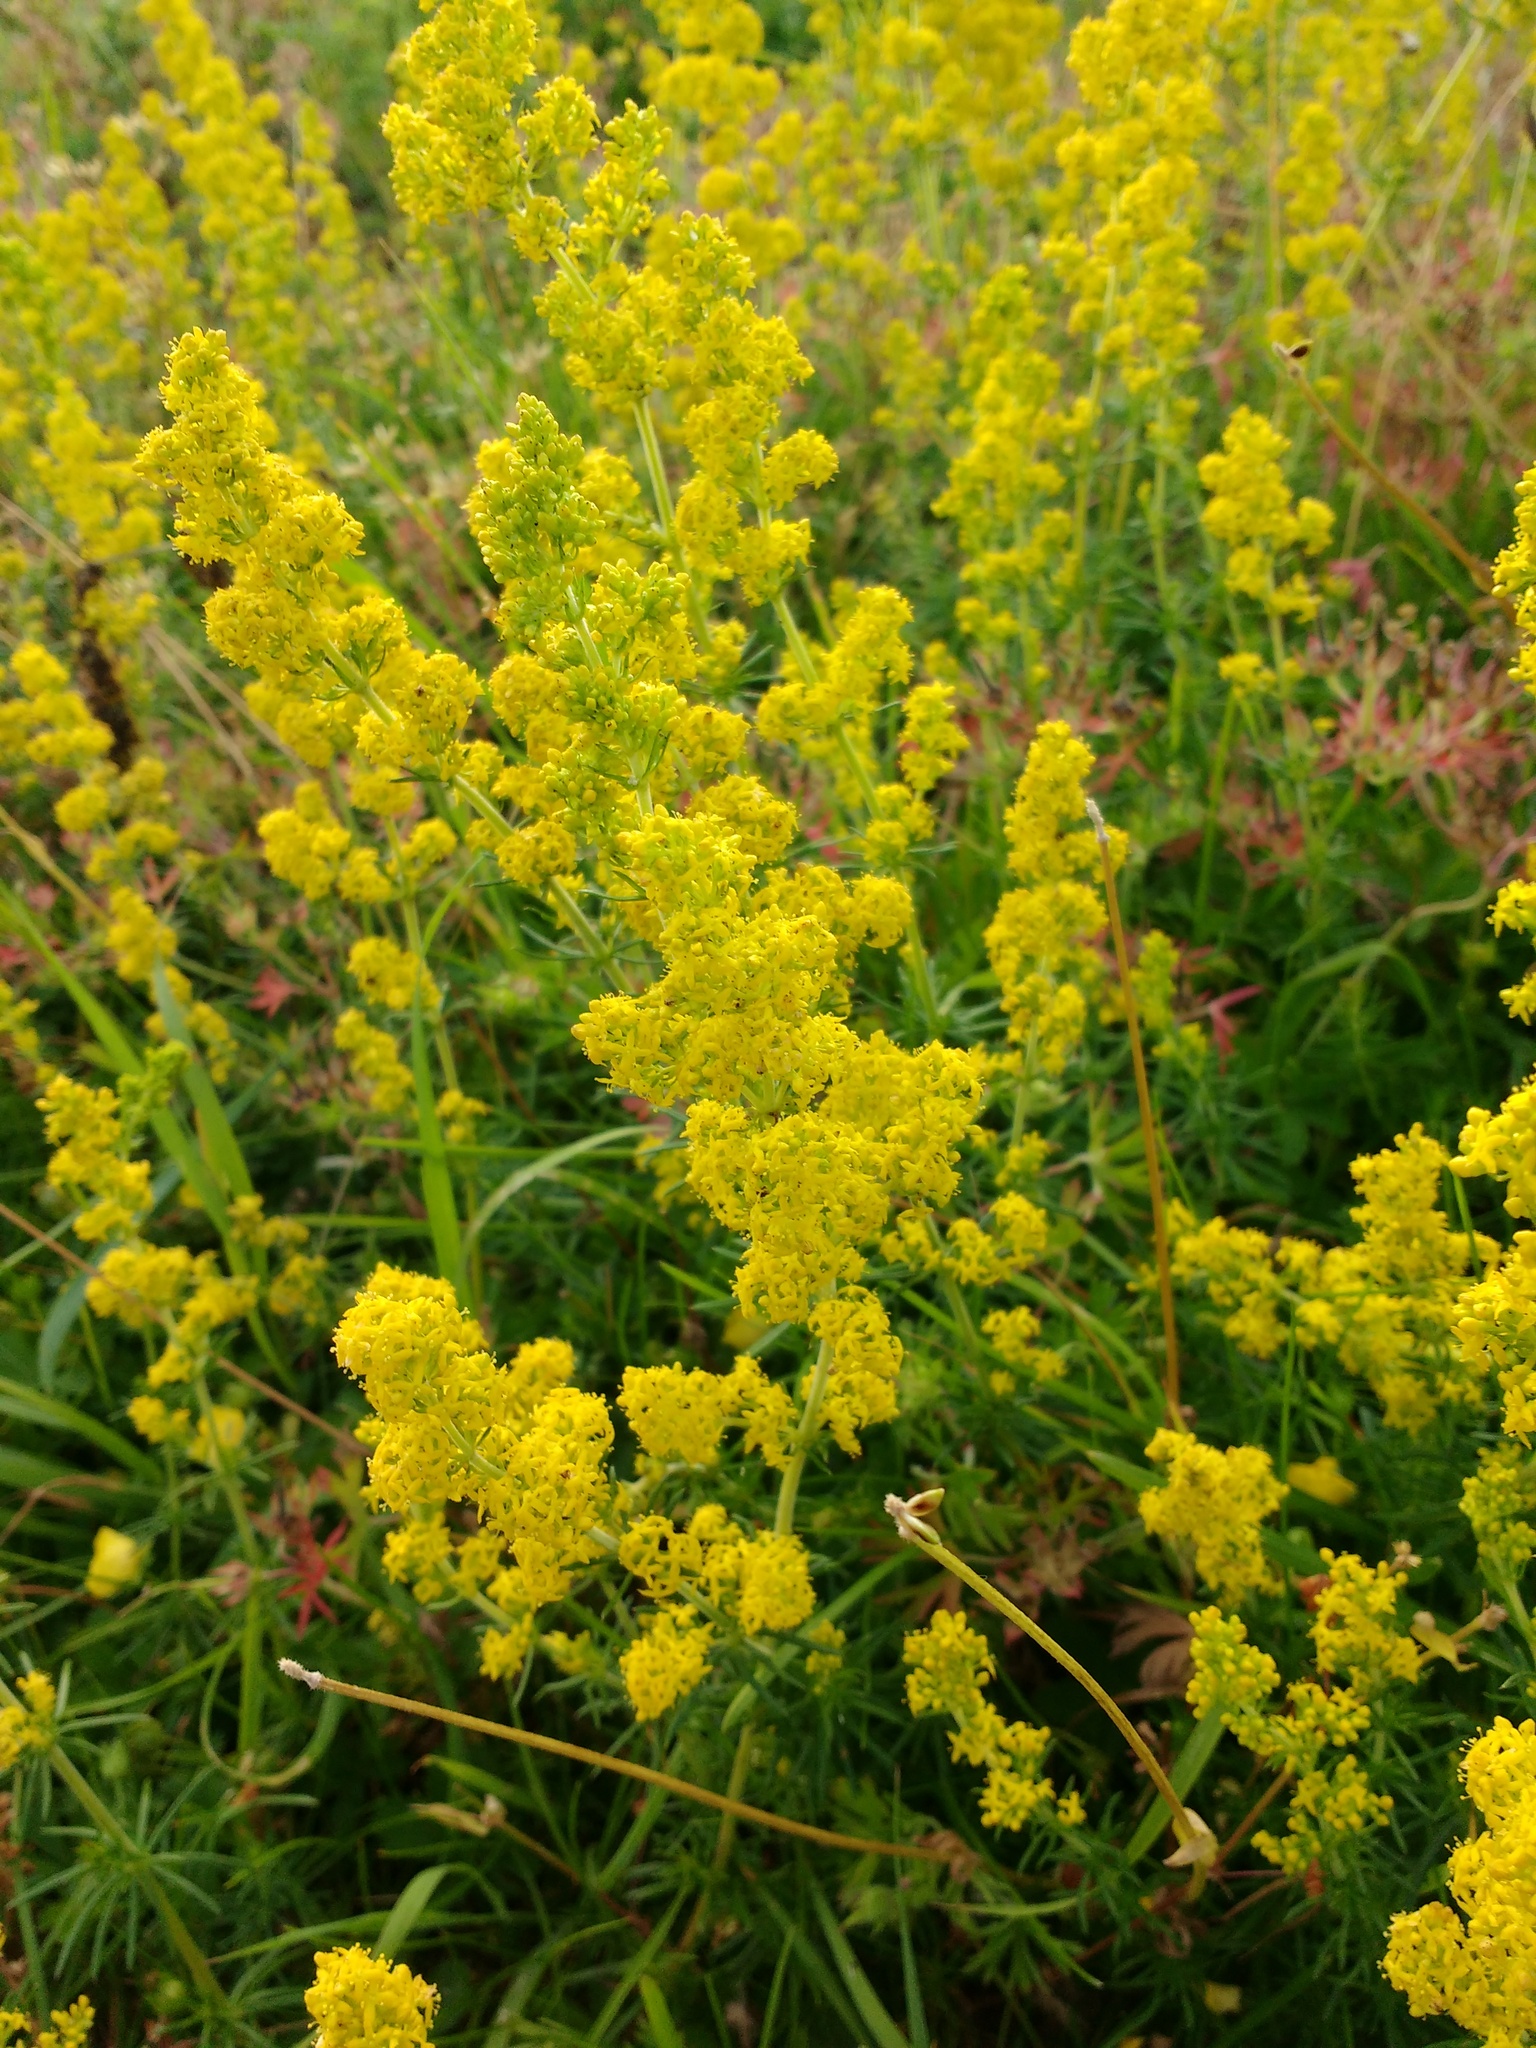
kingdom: Plantae
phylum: Tracheophyta
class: Magnoliopsida
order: Gentianales
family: Rubiaceae
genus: Galium
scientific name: Galium verum
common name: Lady's bedstraw
